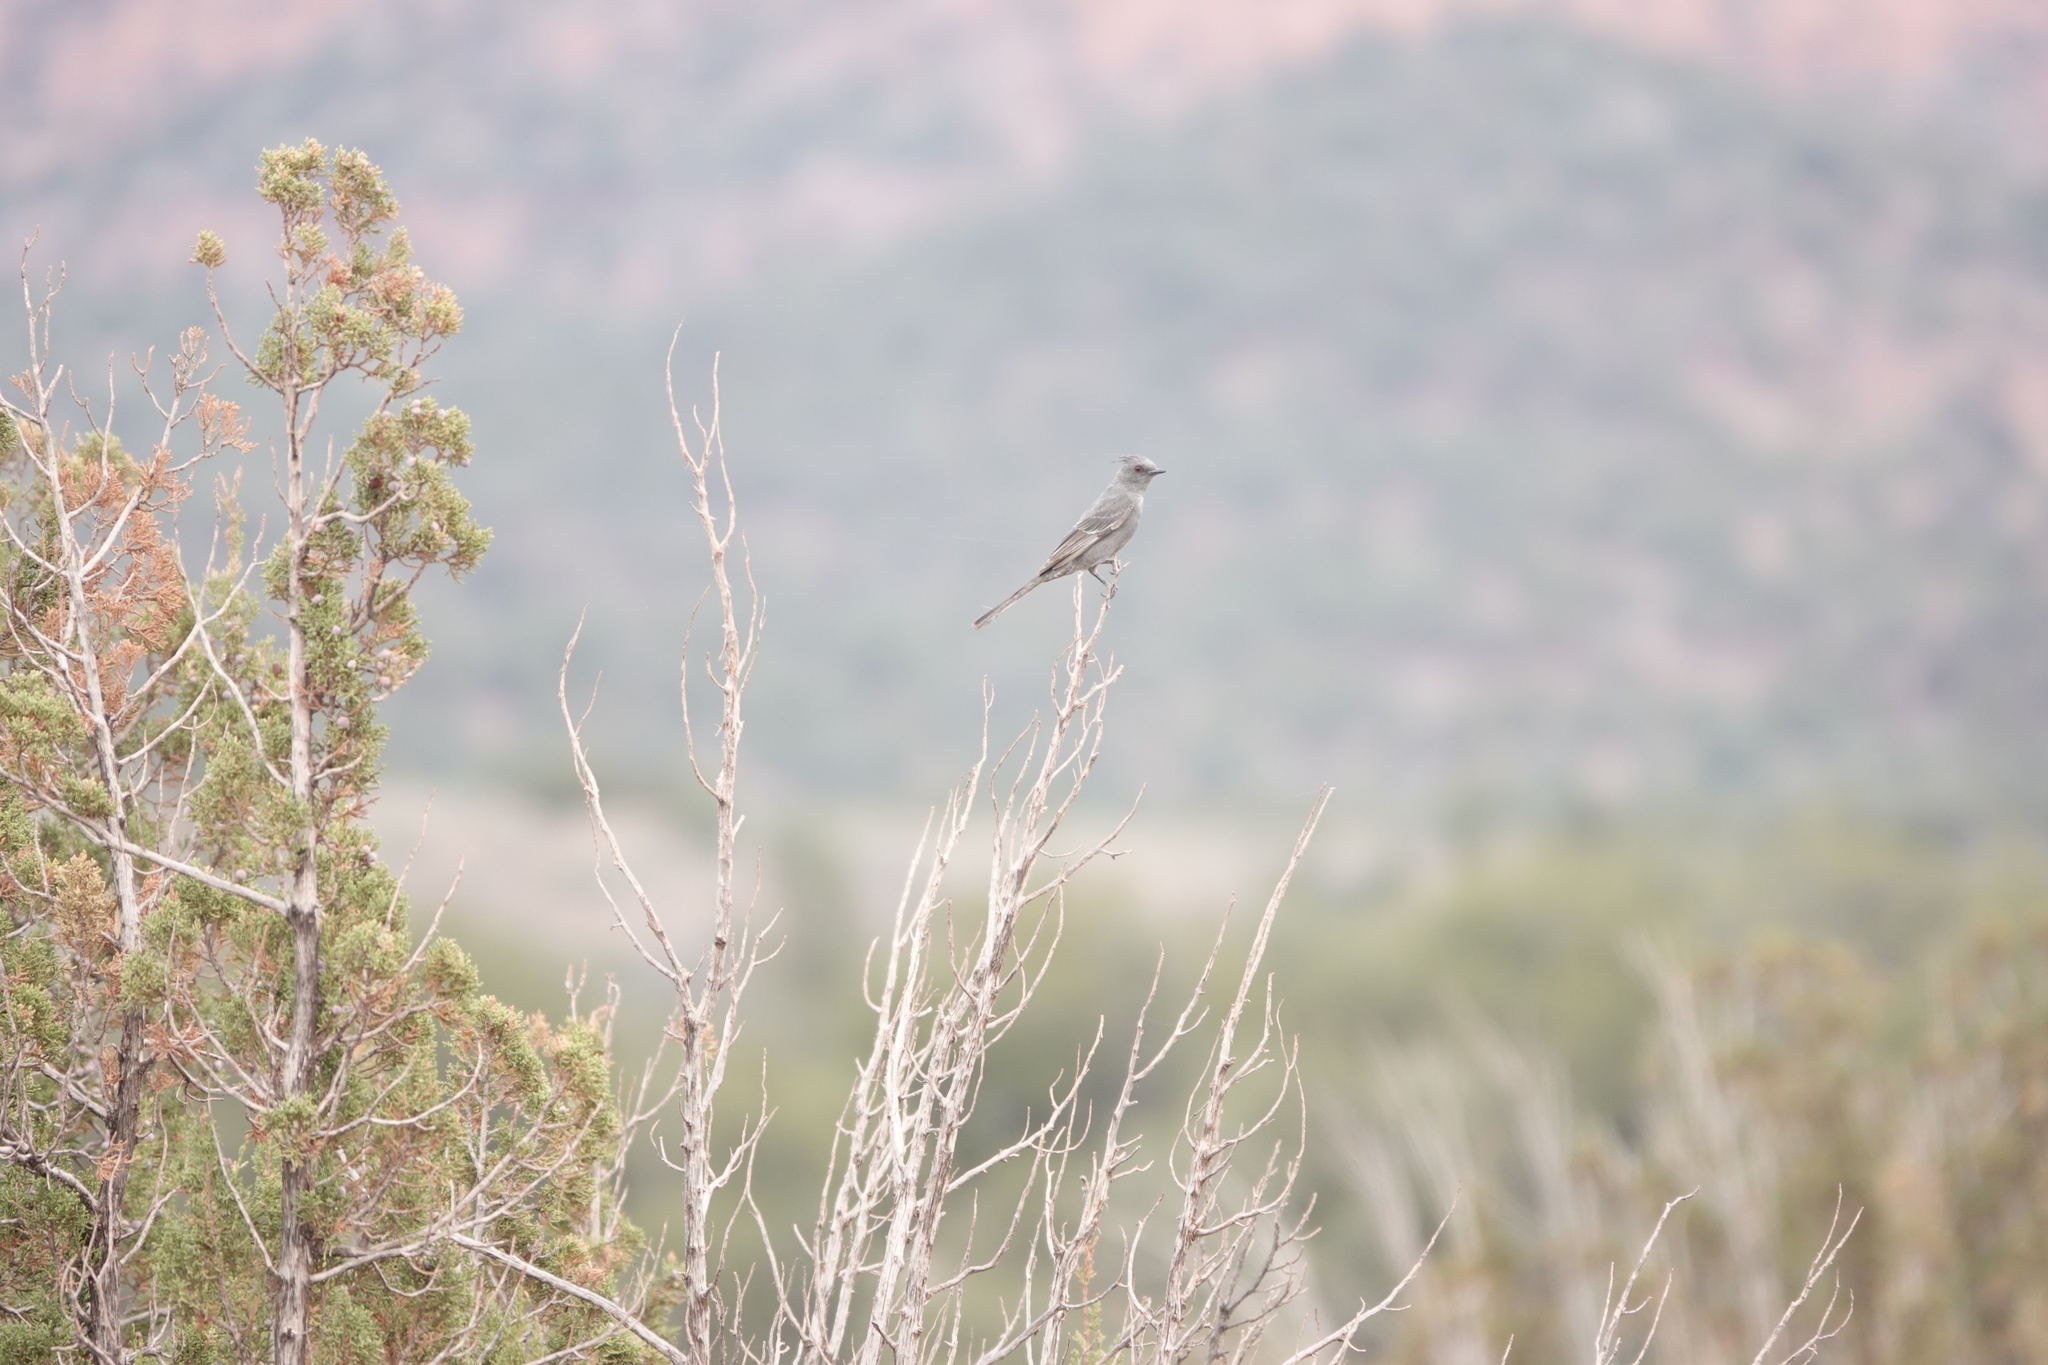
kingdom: Animalia
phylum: Chordata
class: Aves
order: Passeriformes
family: Ptilogonatidae
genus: Phainopepla
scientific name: Phainopepla nitens
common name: Phainopepla
